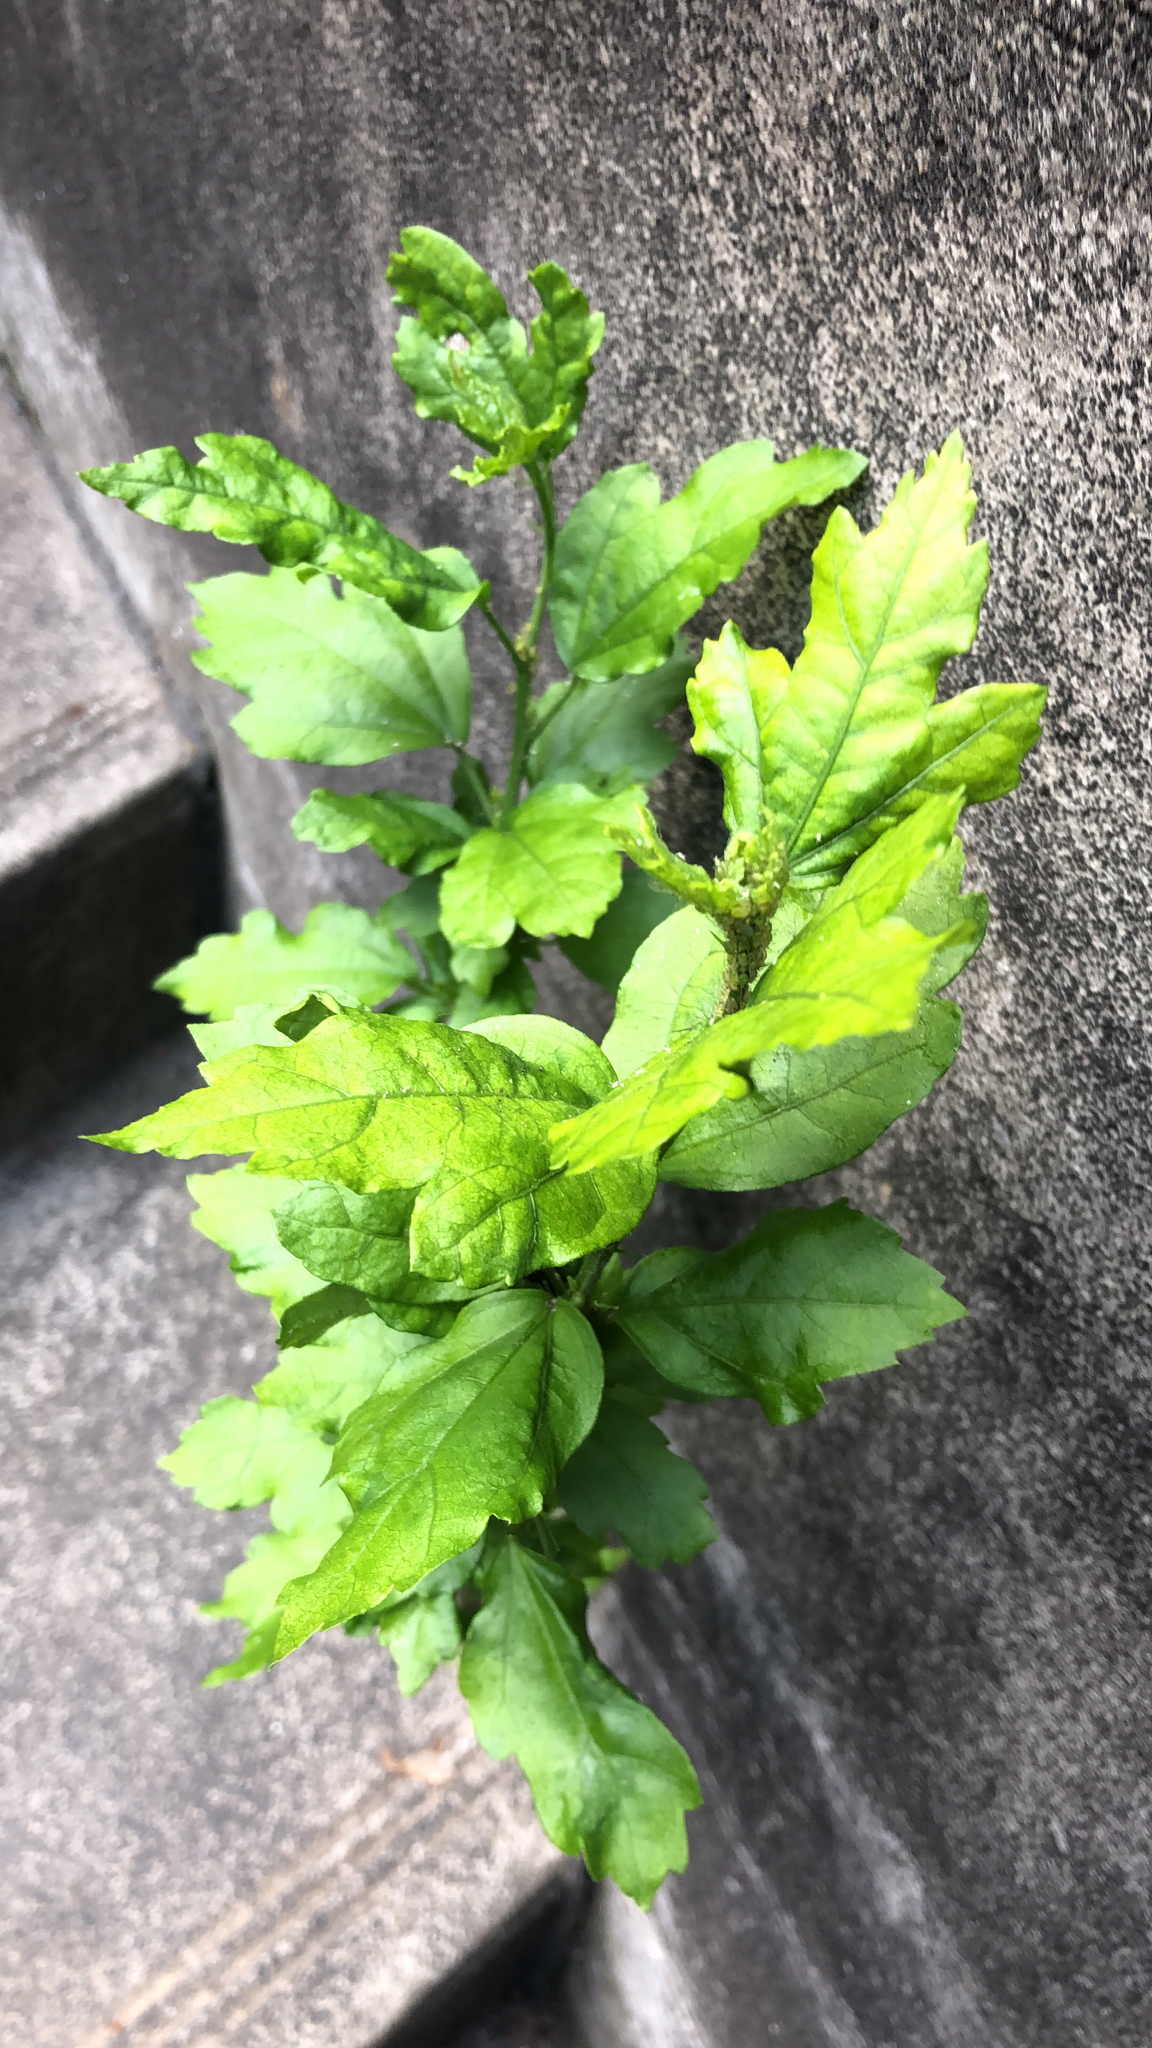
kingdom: Plantae
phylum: Tracheophyta
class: Magnoliopsida
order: Malvales
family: Malvaceae
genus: Hibiscus
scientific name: Hibiscus syriacus
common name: Syrian ketmia
